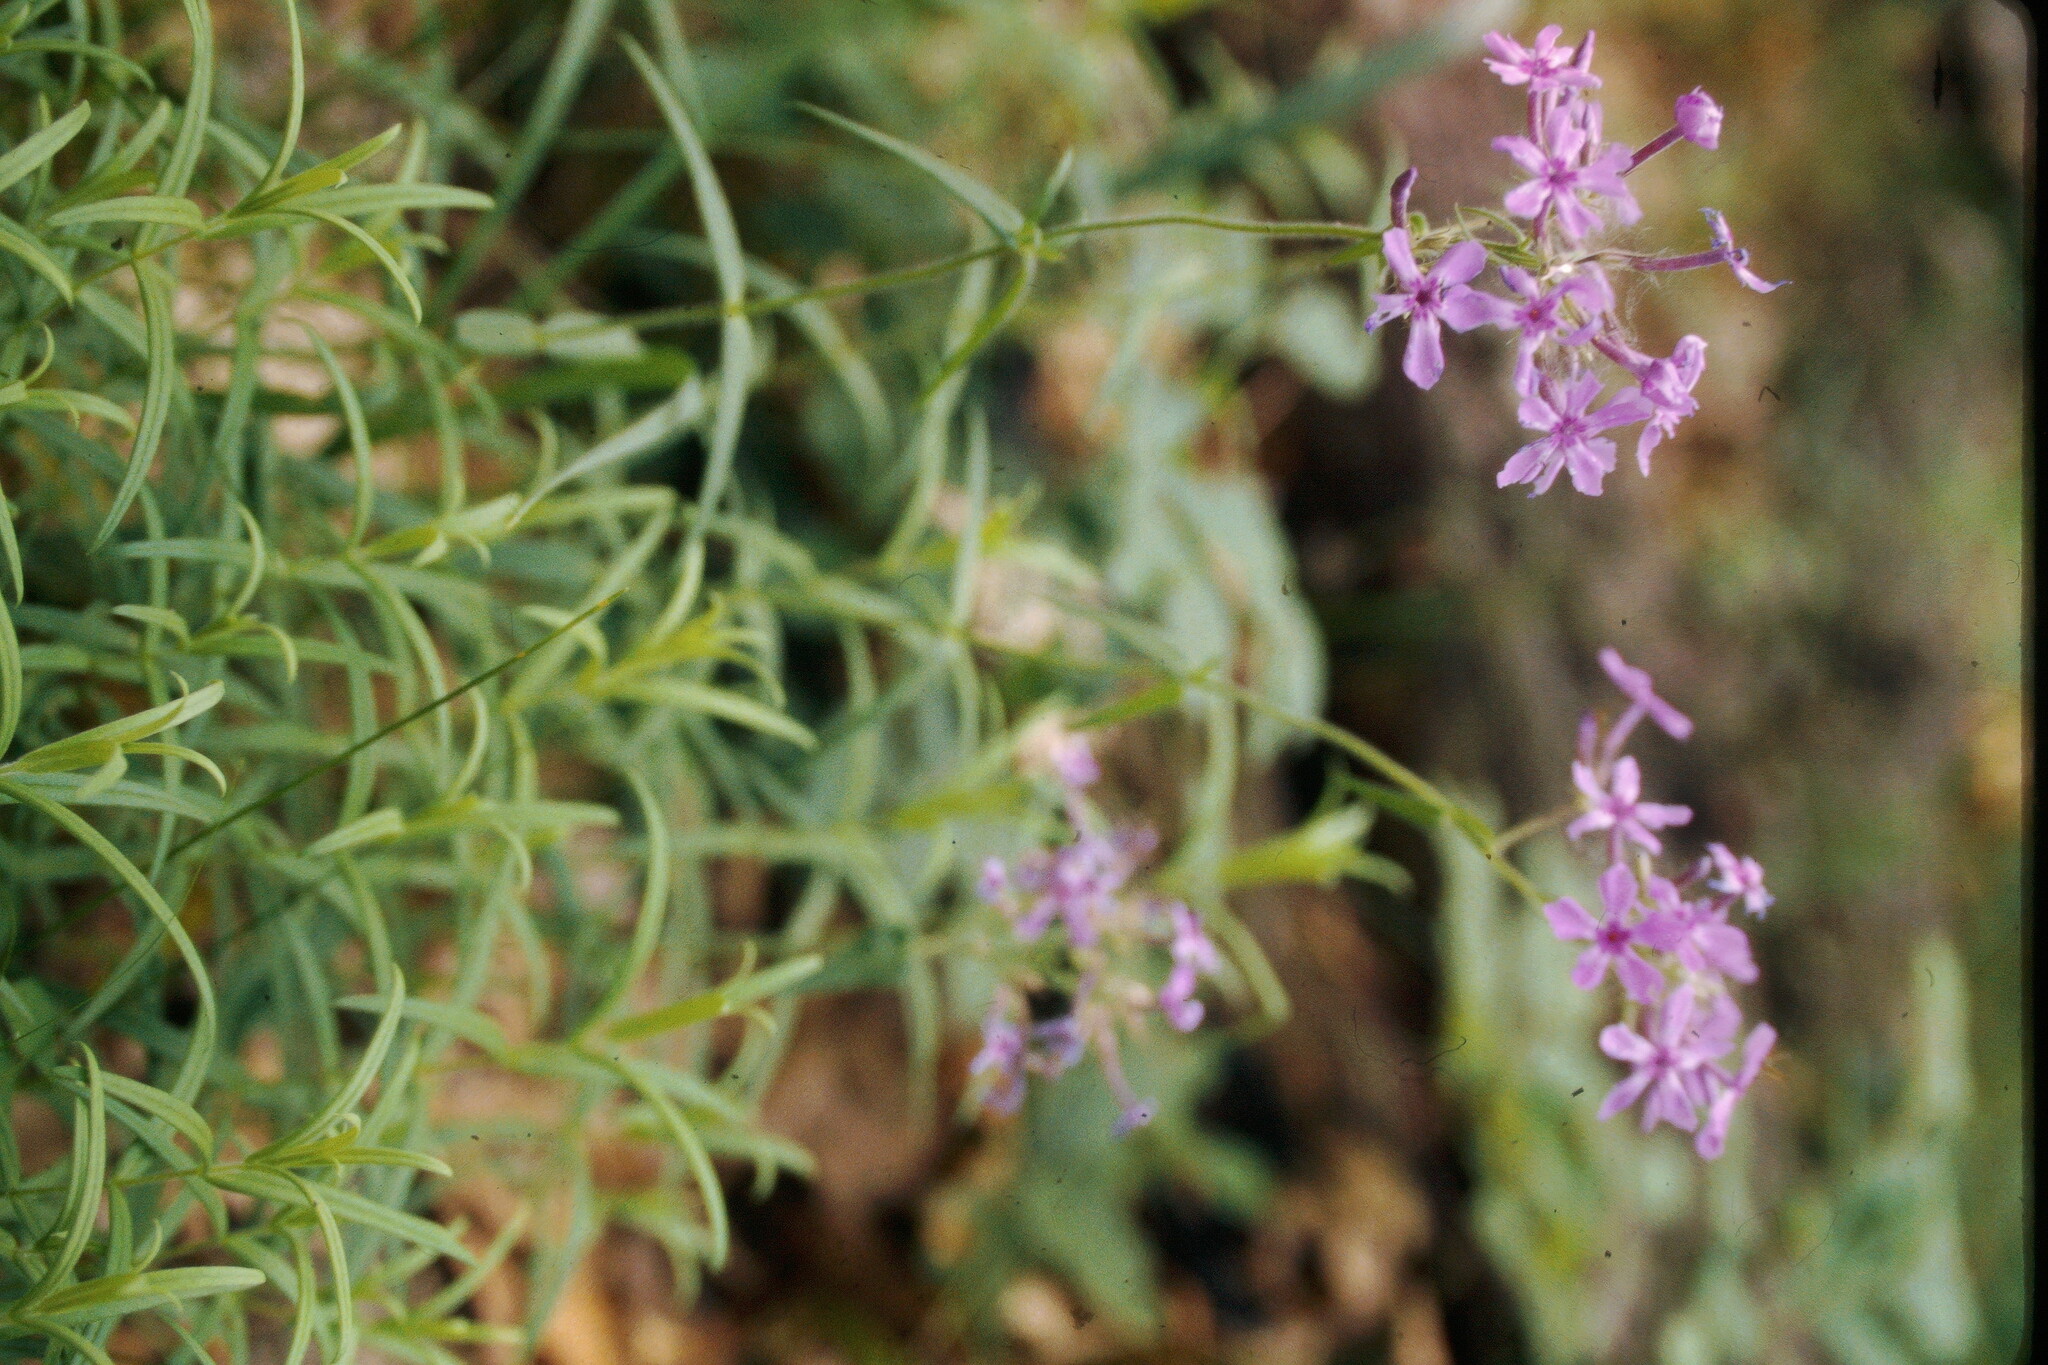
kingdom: Plantae
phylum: Tracheophyta
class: Magnoliopsida
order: Ericales
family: Polemoniaceae
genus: Phlox
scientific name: Phlox pilosa
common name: Prairie phlox
